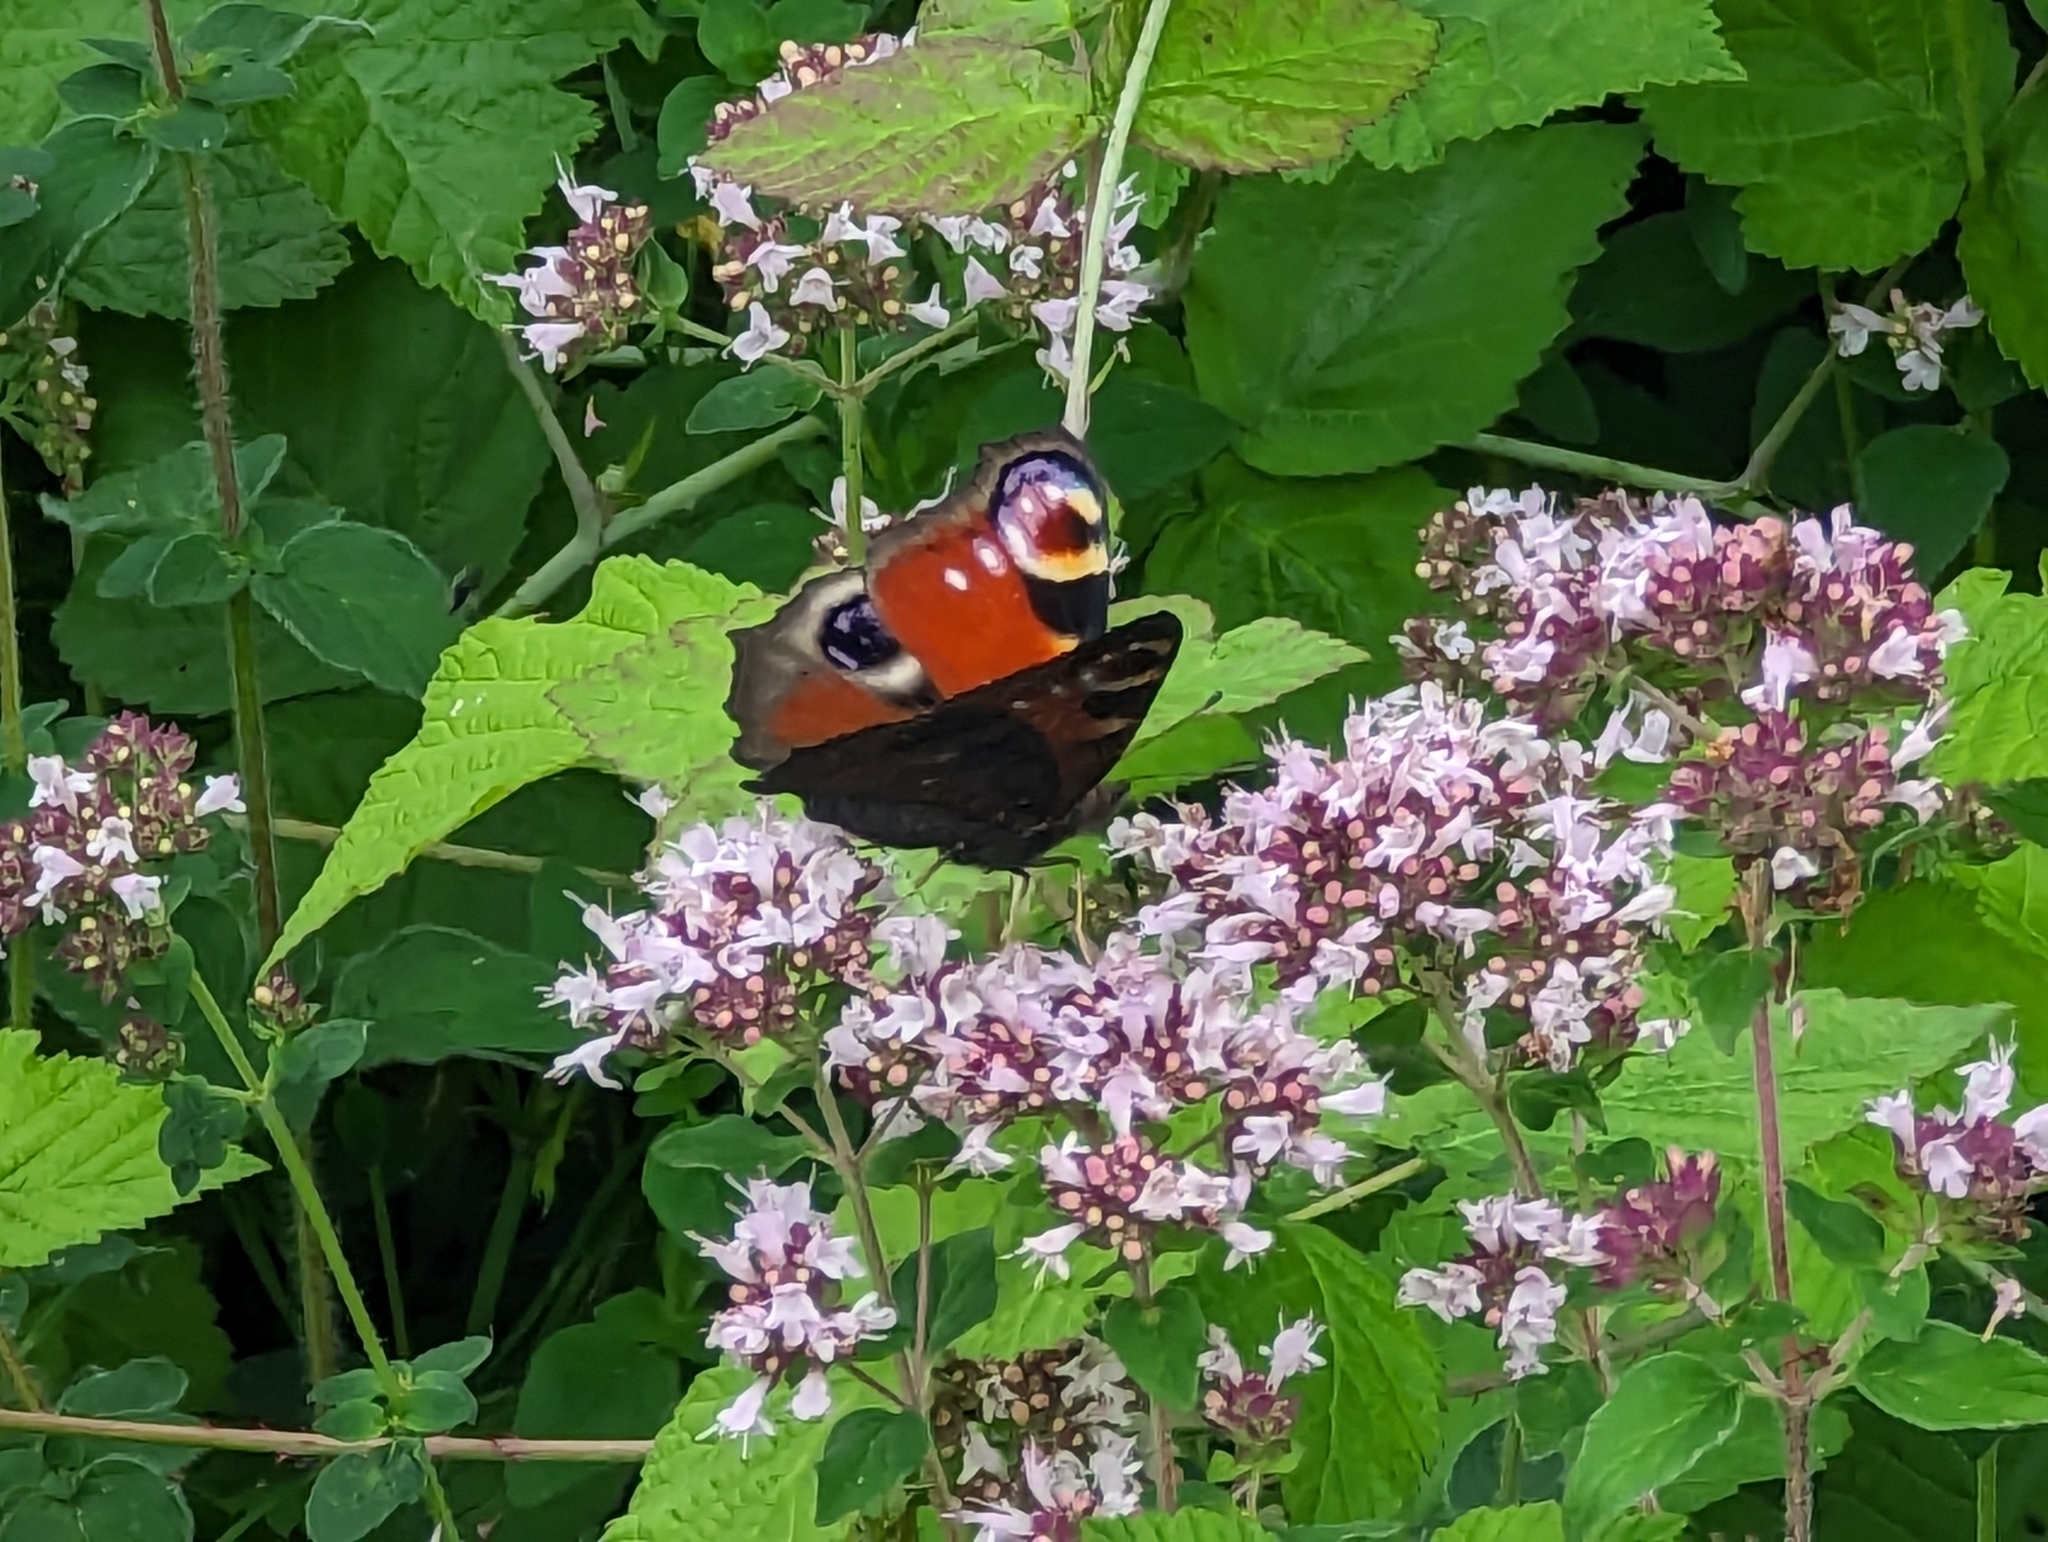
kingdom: Animalia
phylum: Arthropoda
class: Insecta
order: Lepidoptera
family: Nymphalidae
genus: Aglais
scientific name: Aglais io
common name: Peacock
